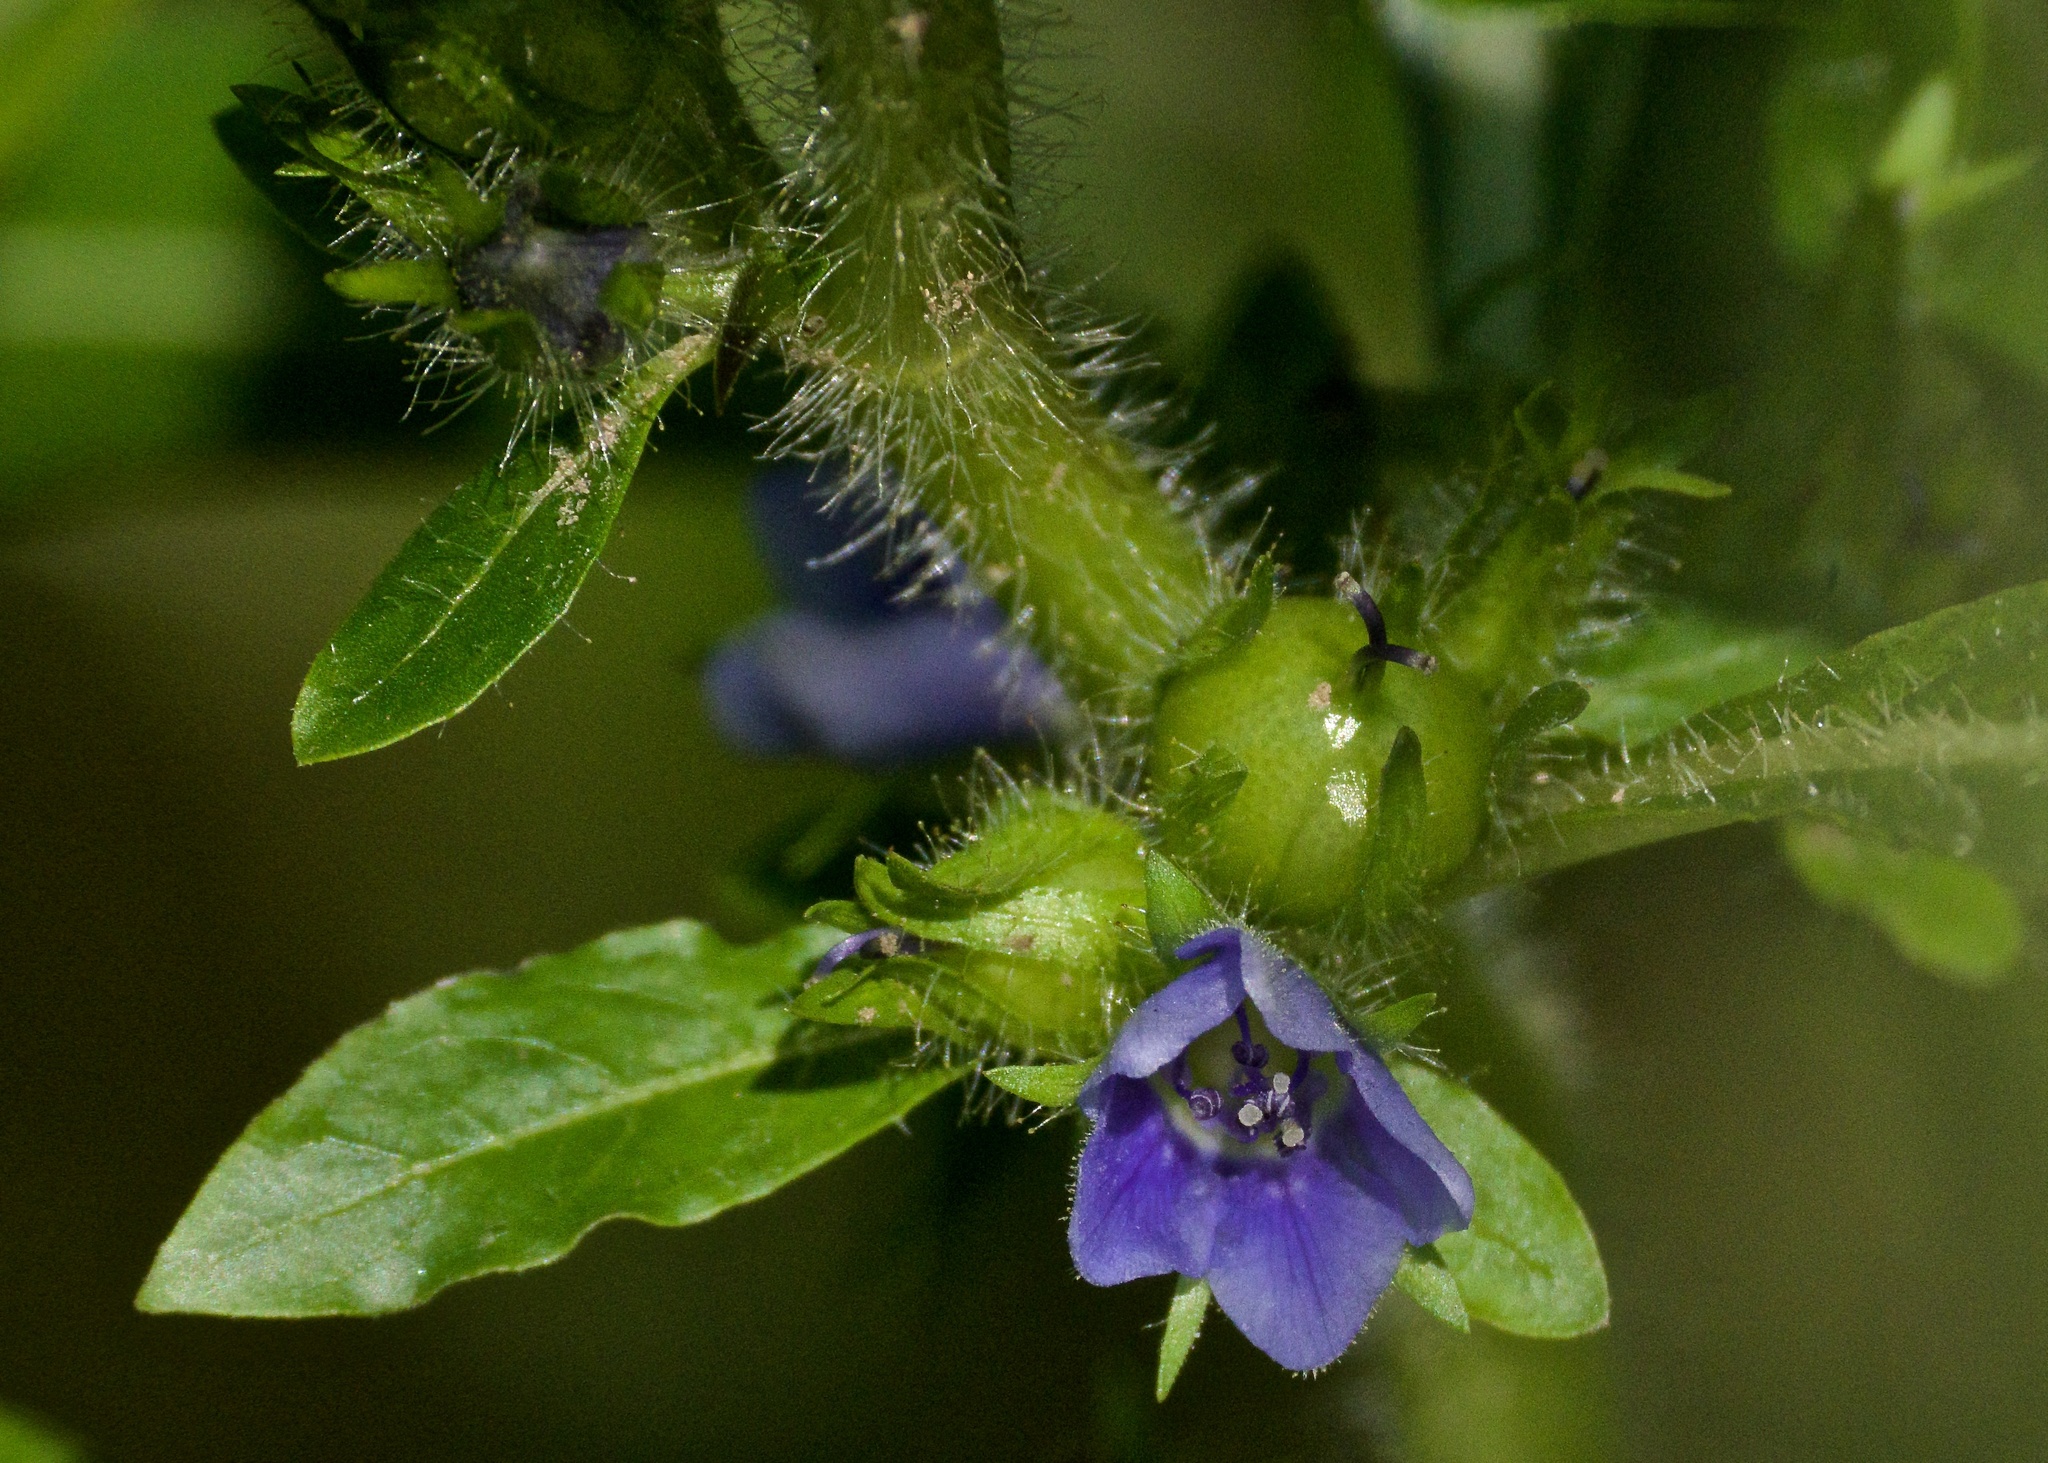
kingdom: Plantae
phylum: Tracheophyta
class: Magnoliopsida
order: Solanales
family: Hydroleaceae
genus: Hydrolea
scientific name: Hydrolea quadrivalvis
